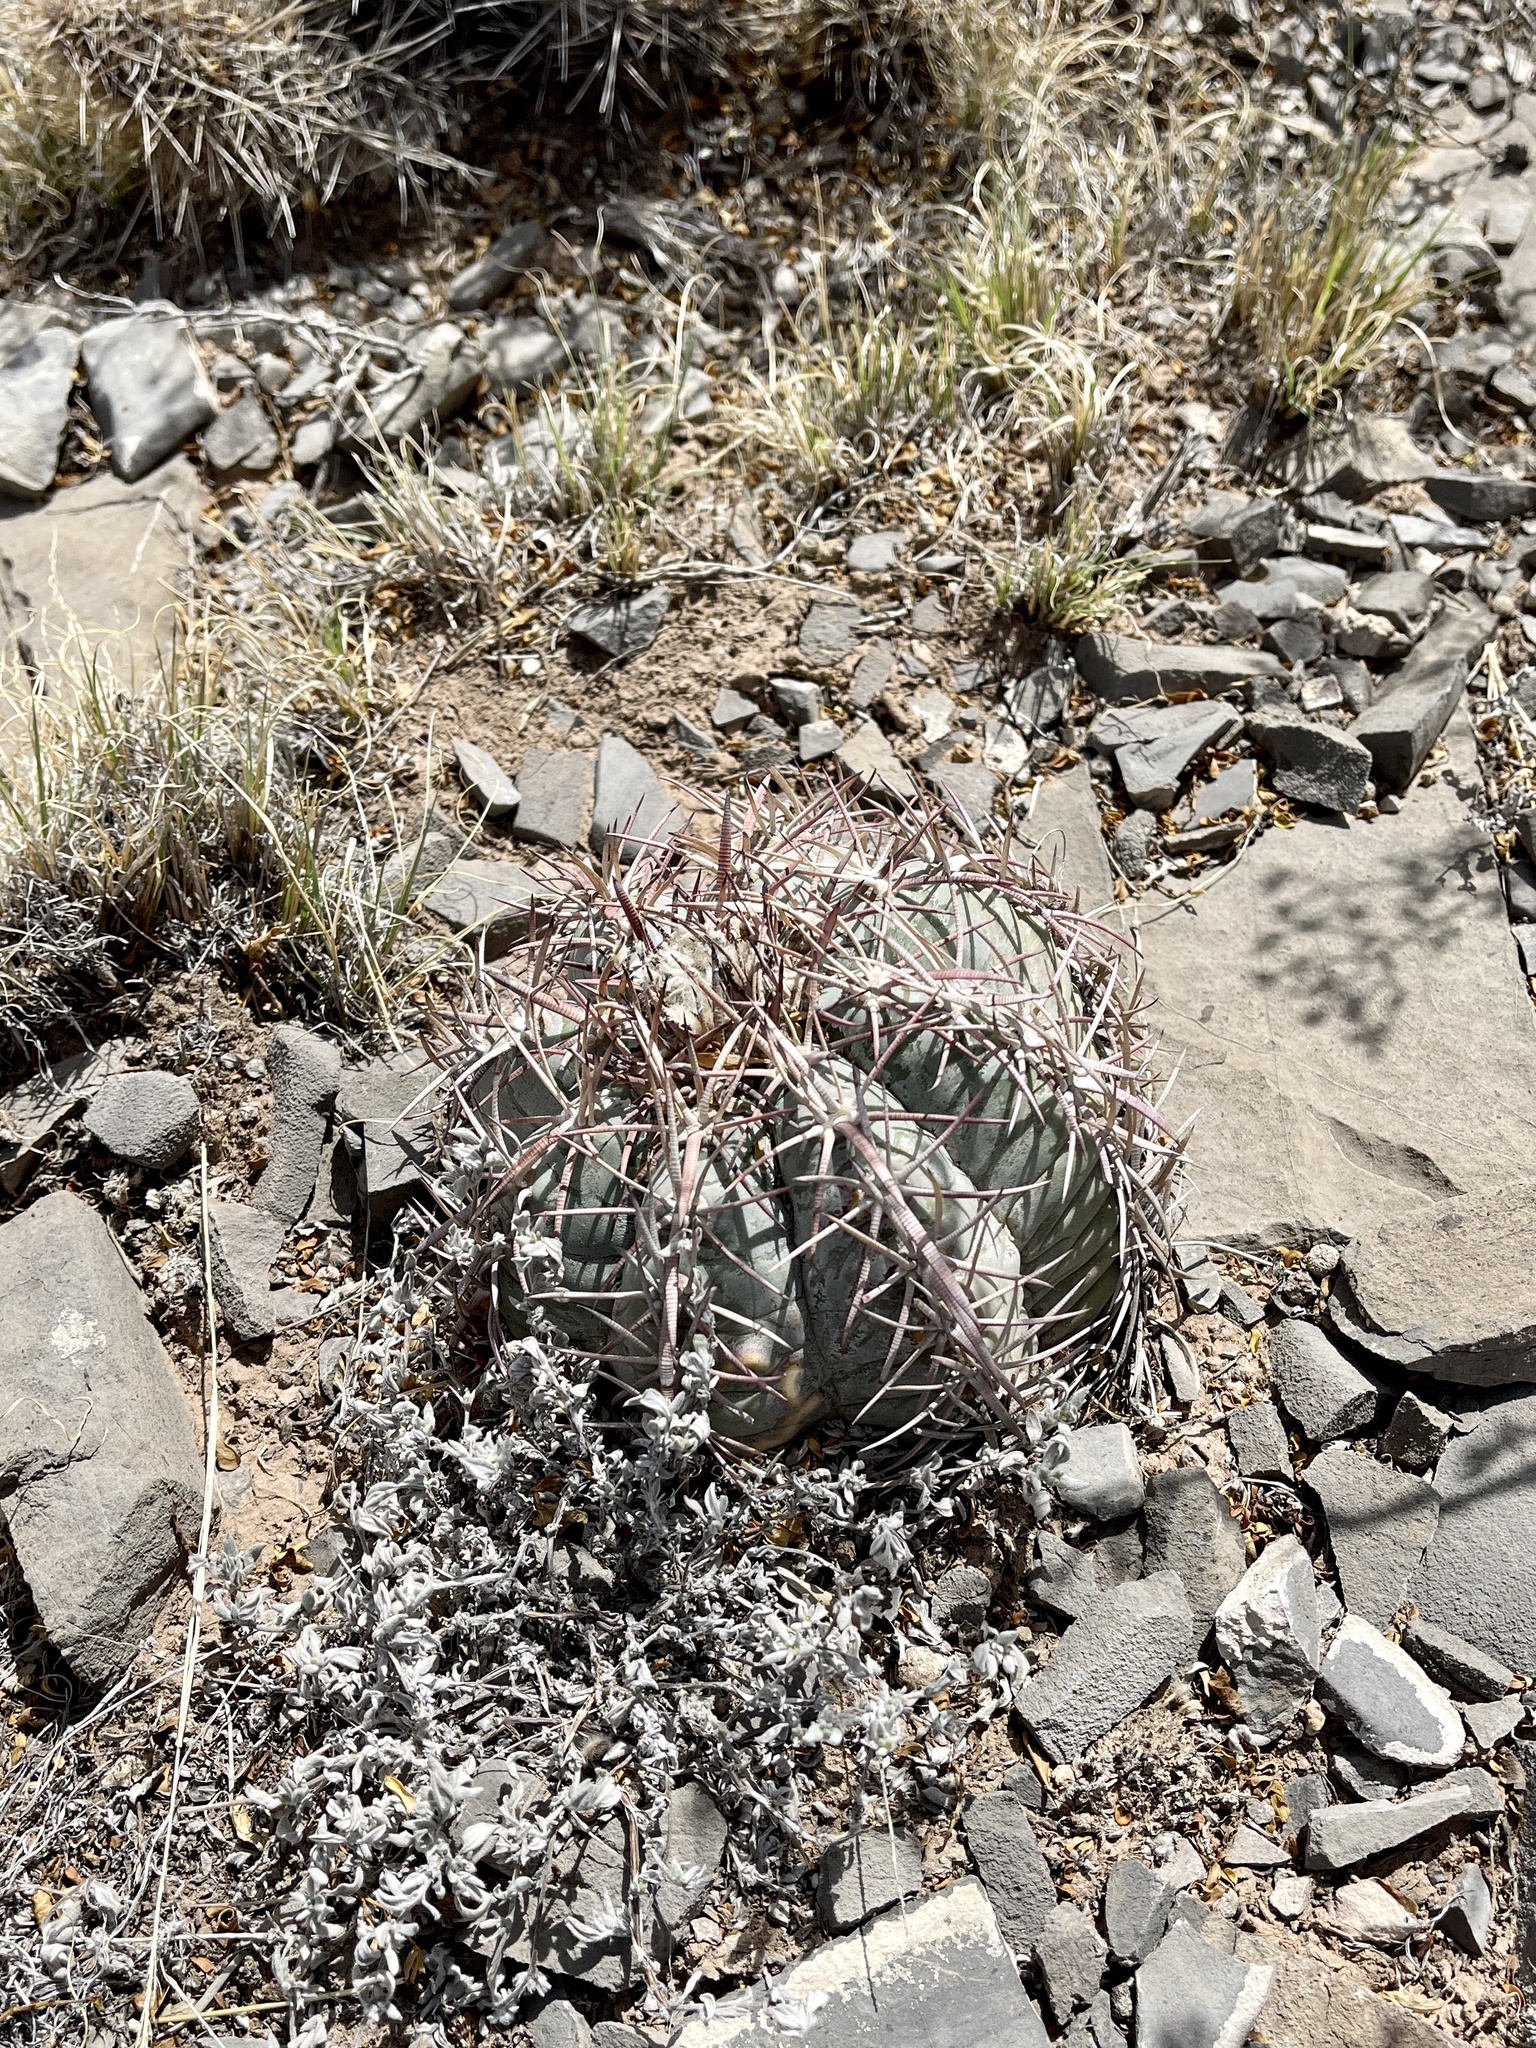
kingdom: Plantae
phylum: Tracheophyta
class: Magnoliopsida
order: Caryophyllales
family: Cactaceae
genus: Echinocactus
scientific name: Echinocactus horizonthalonius
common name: Devilshead
